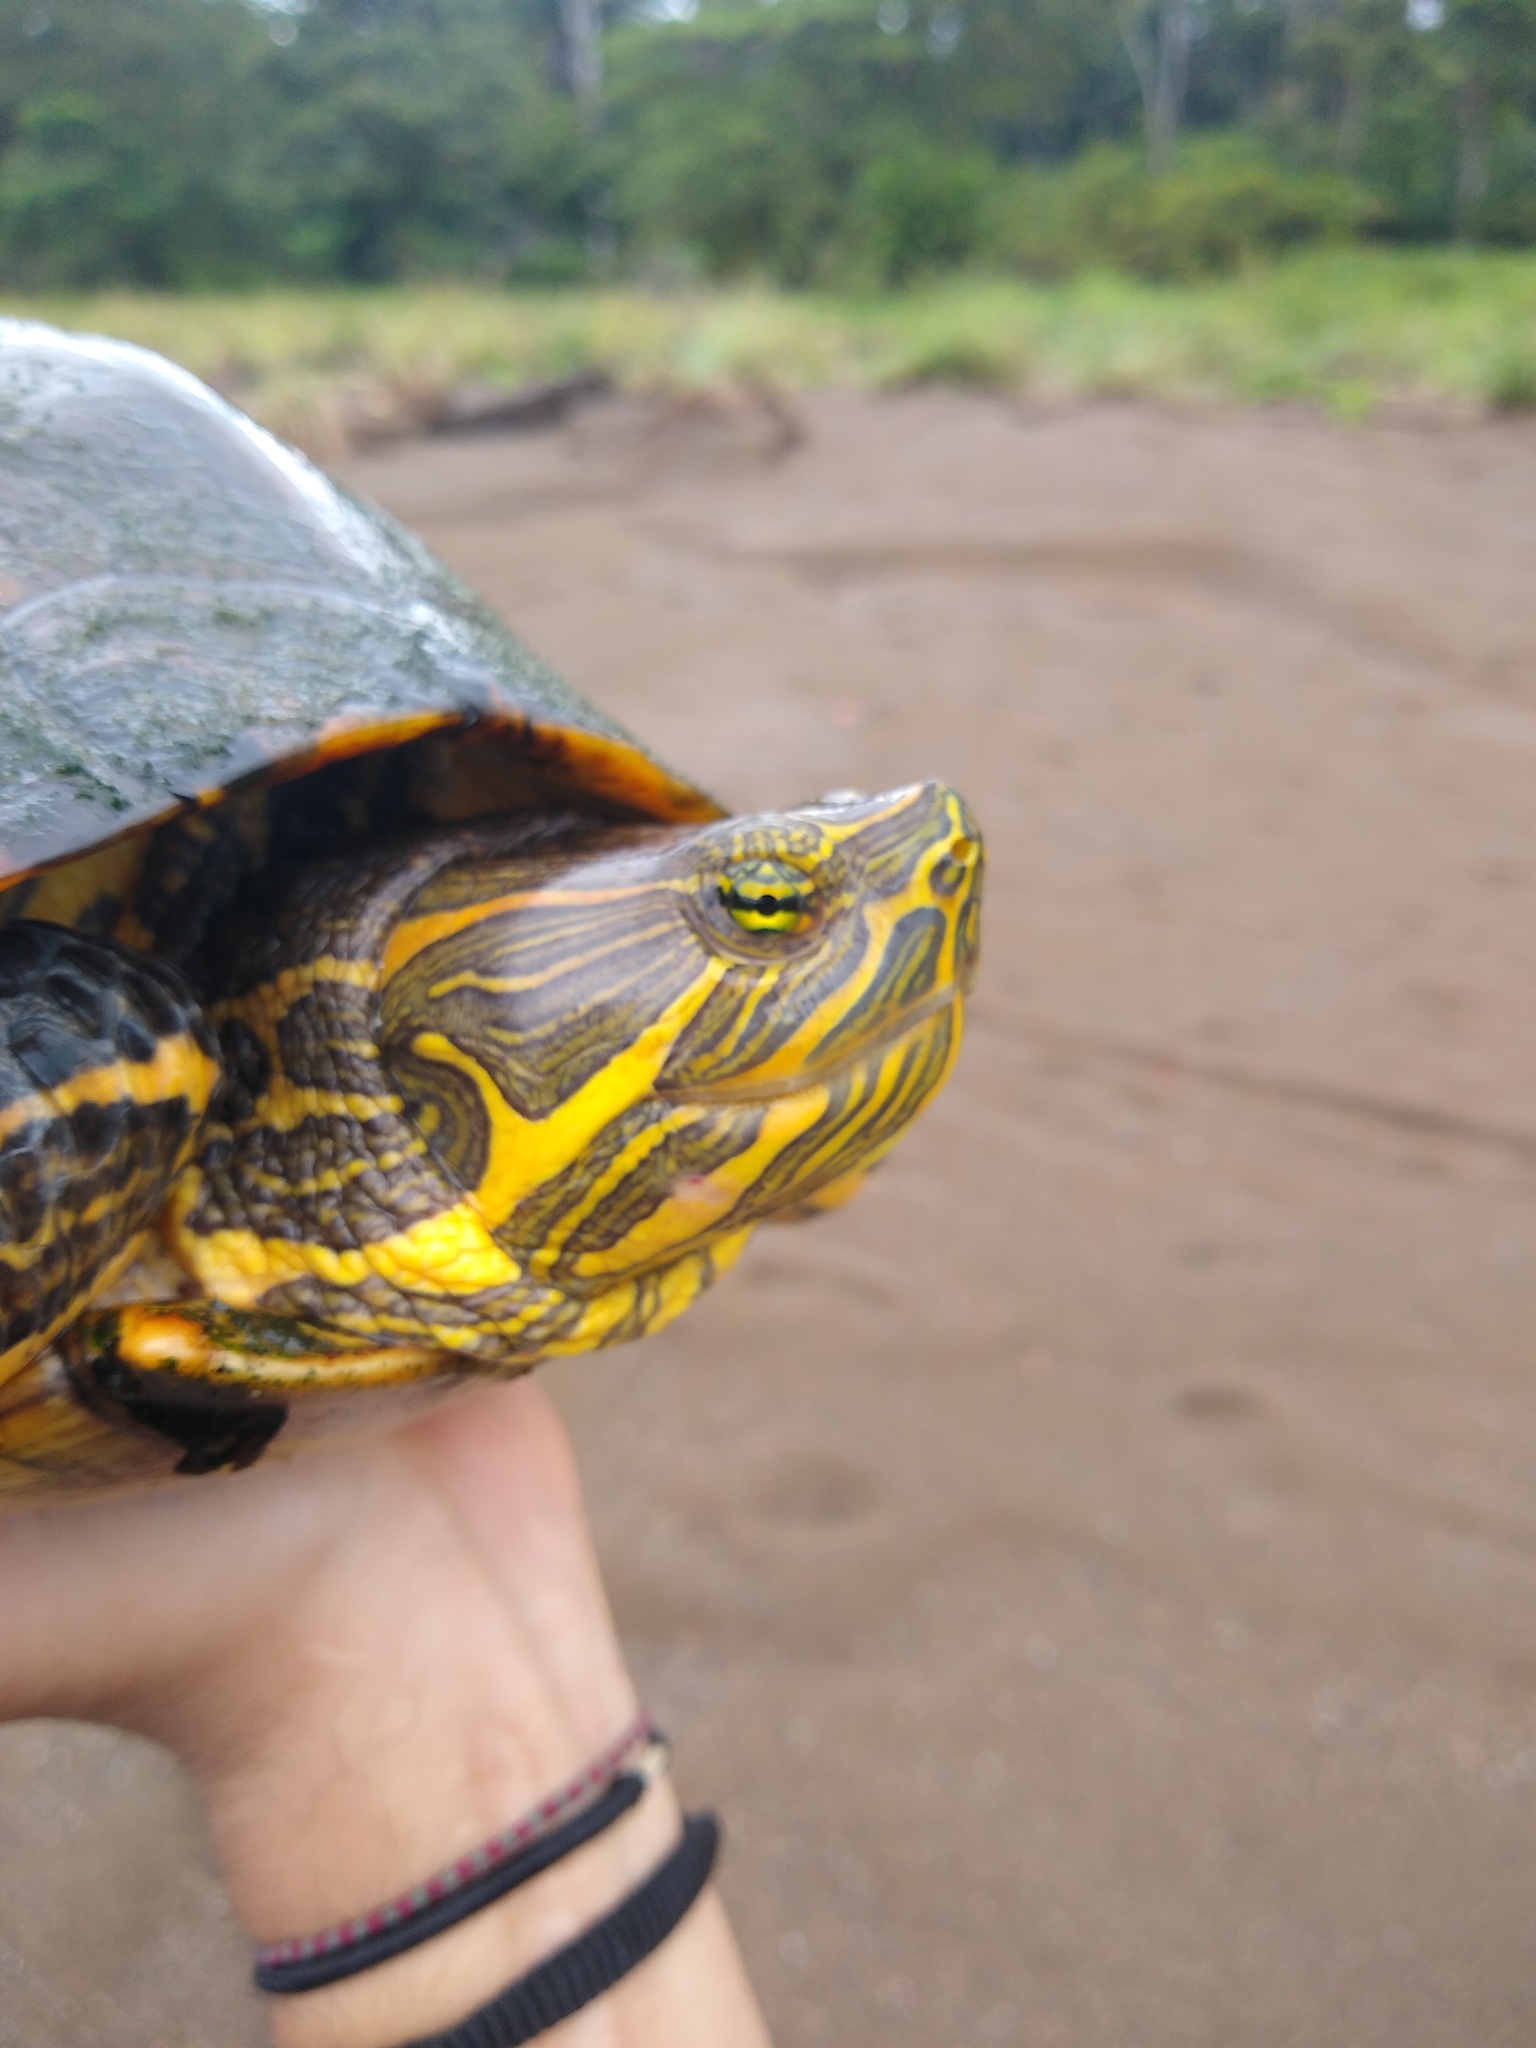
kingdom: Animalia
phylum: Chordata
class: Testudines
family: Emydidae
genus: Trachemys
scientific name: Trachemys grayi
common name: Gray's slider
